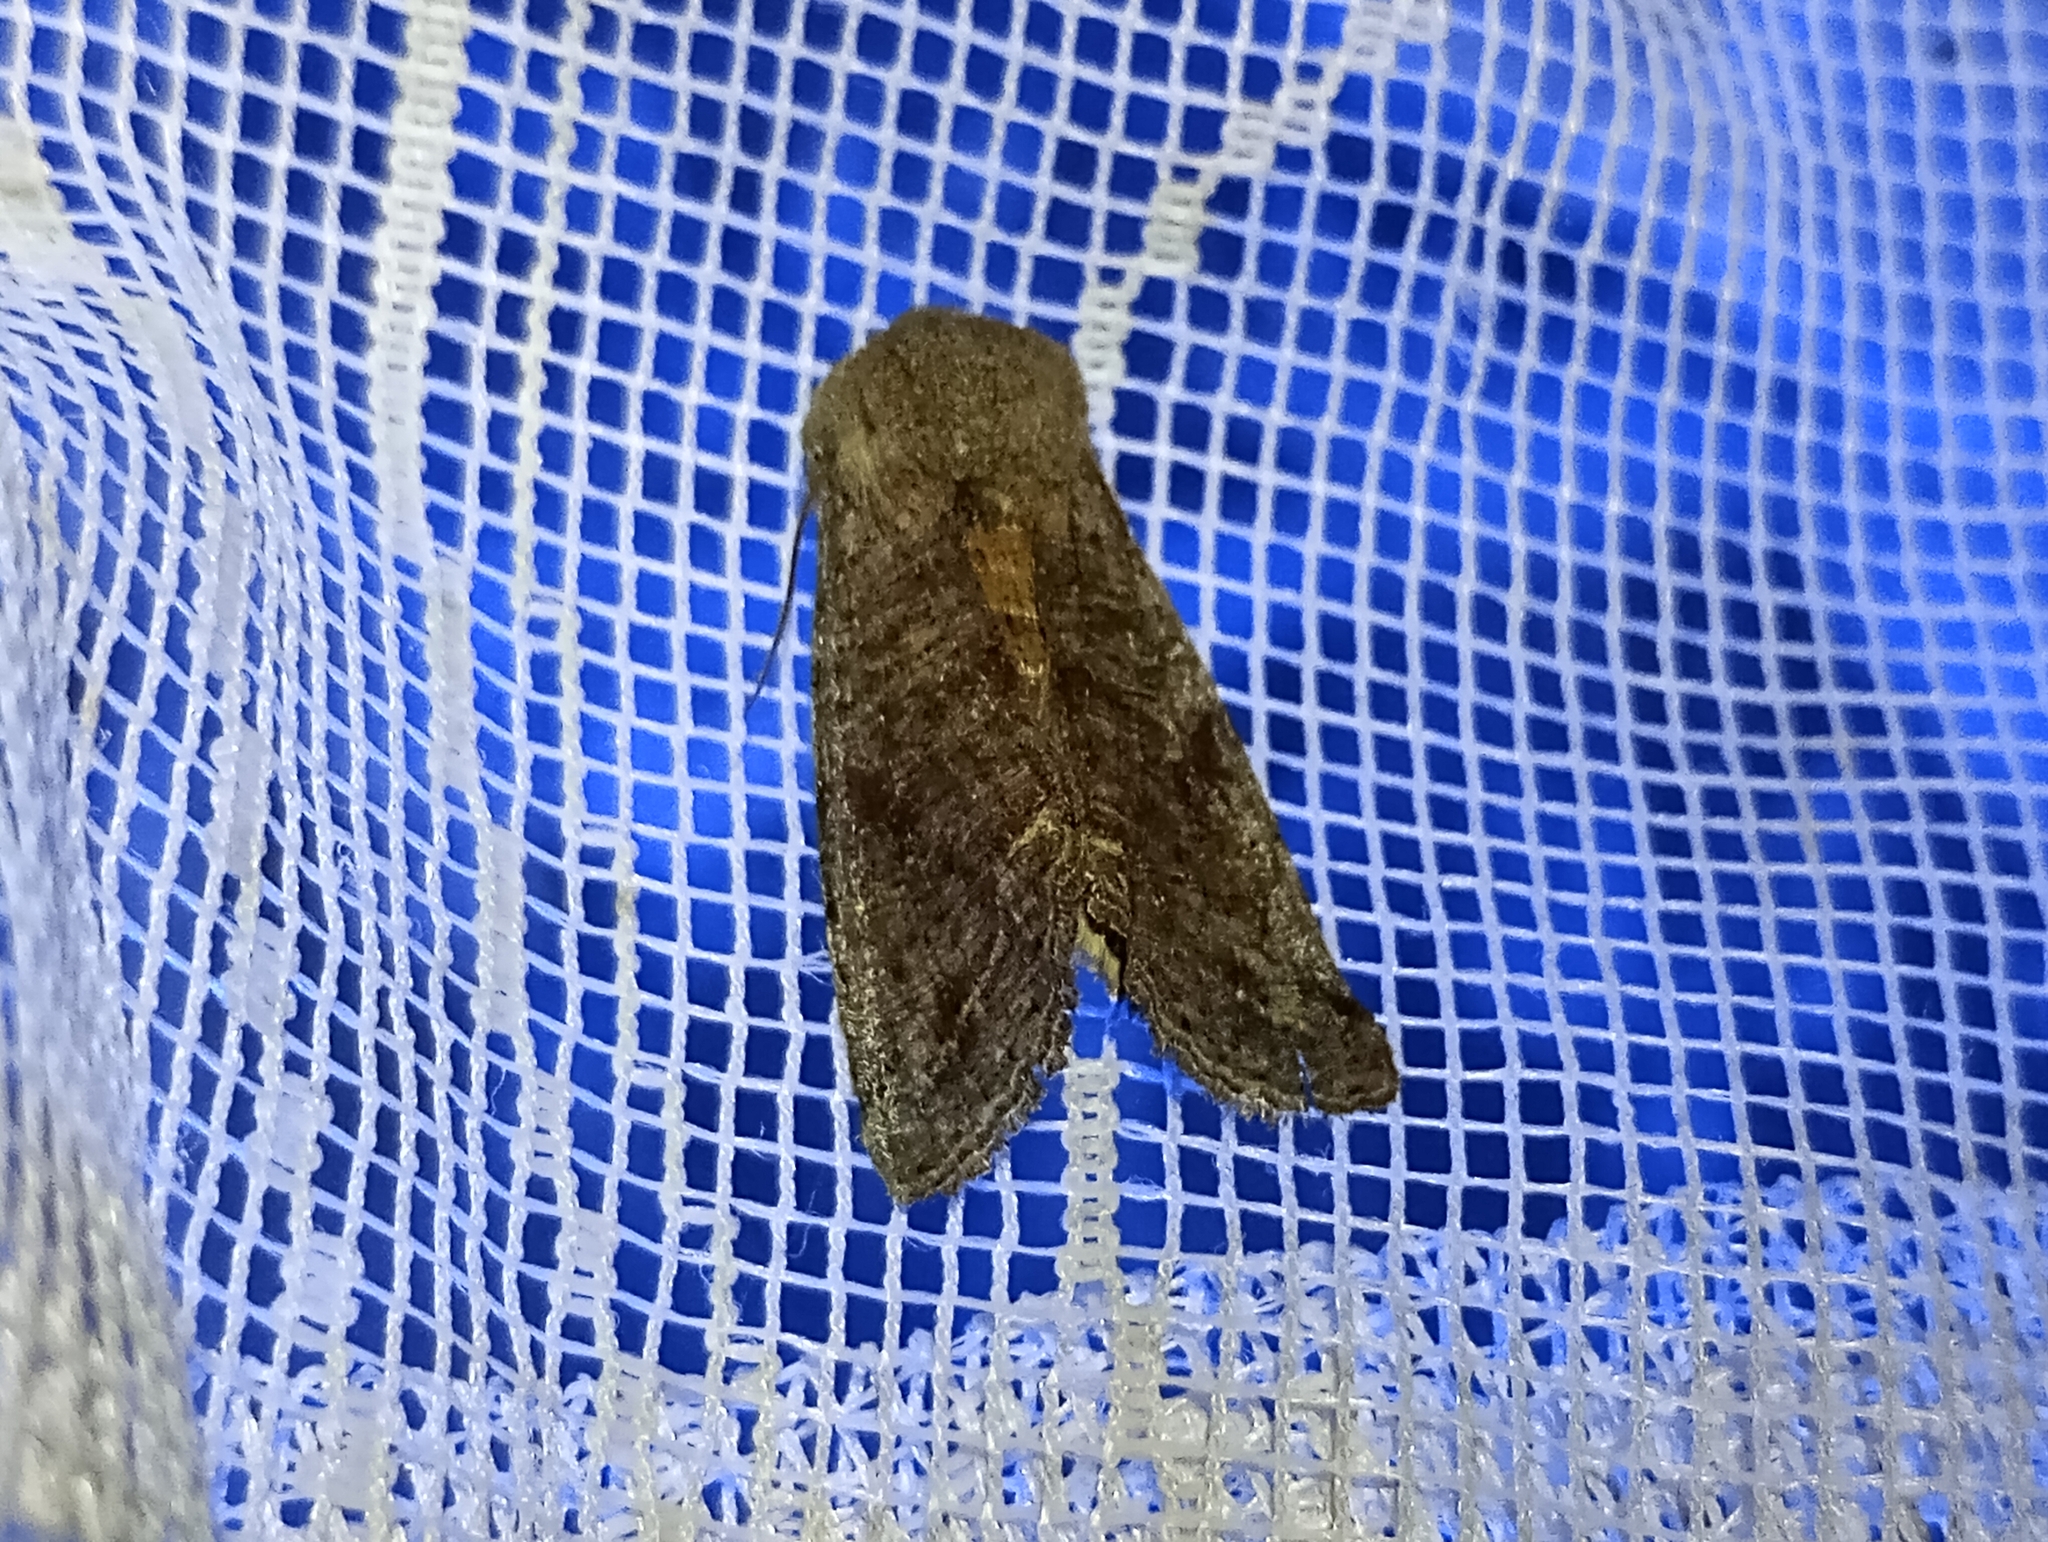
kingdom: Animalia
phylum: Arthropoda
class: Insecta
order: Lepidoptera
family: Noctuidae
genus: Orthosia
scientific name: Orthosia incerta
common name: Clouded drab
